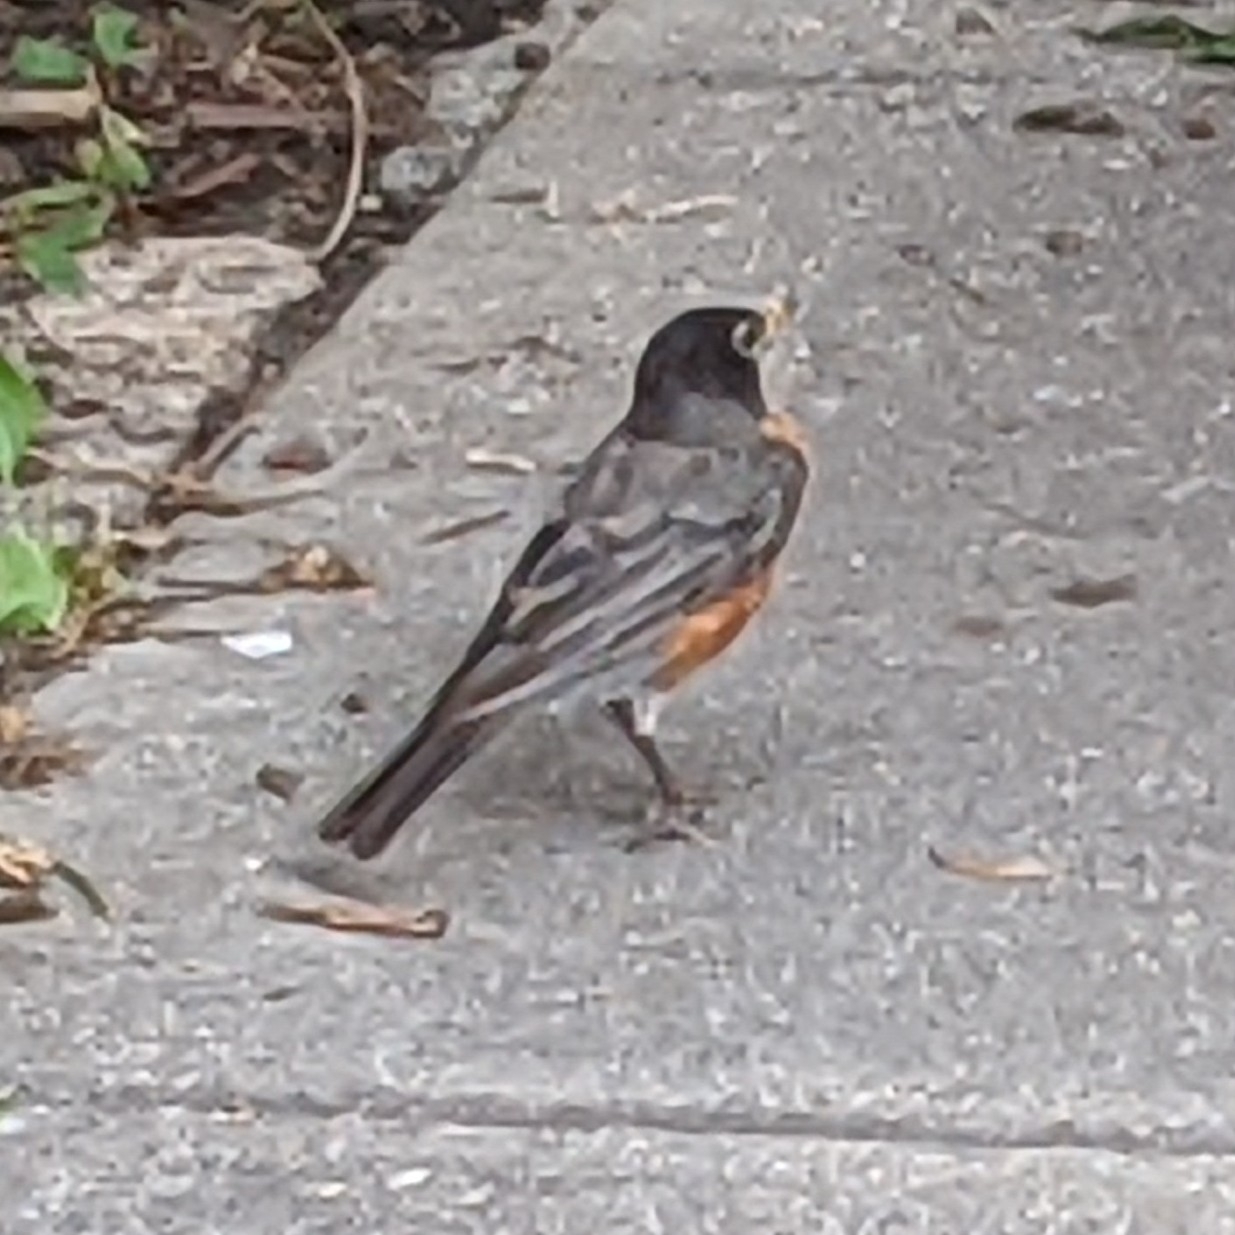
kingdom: Animalia
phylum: Chordata
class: Aves
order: Passeriformes
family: Turdidae
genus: Turdus
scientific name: Turdus migratorius
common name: American robin
